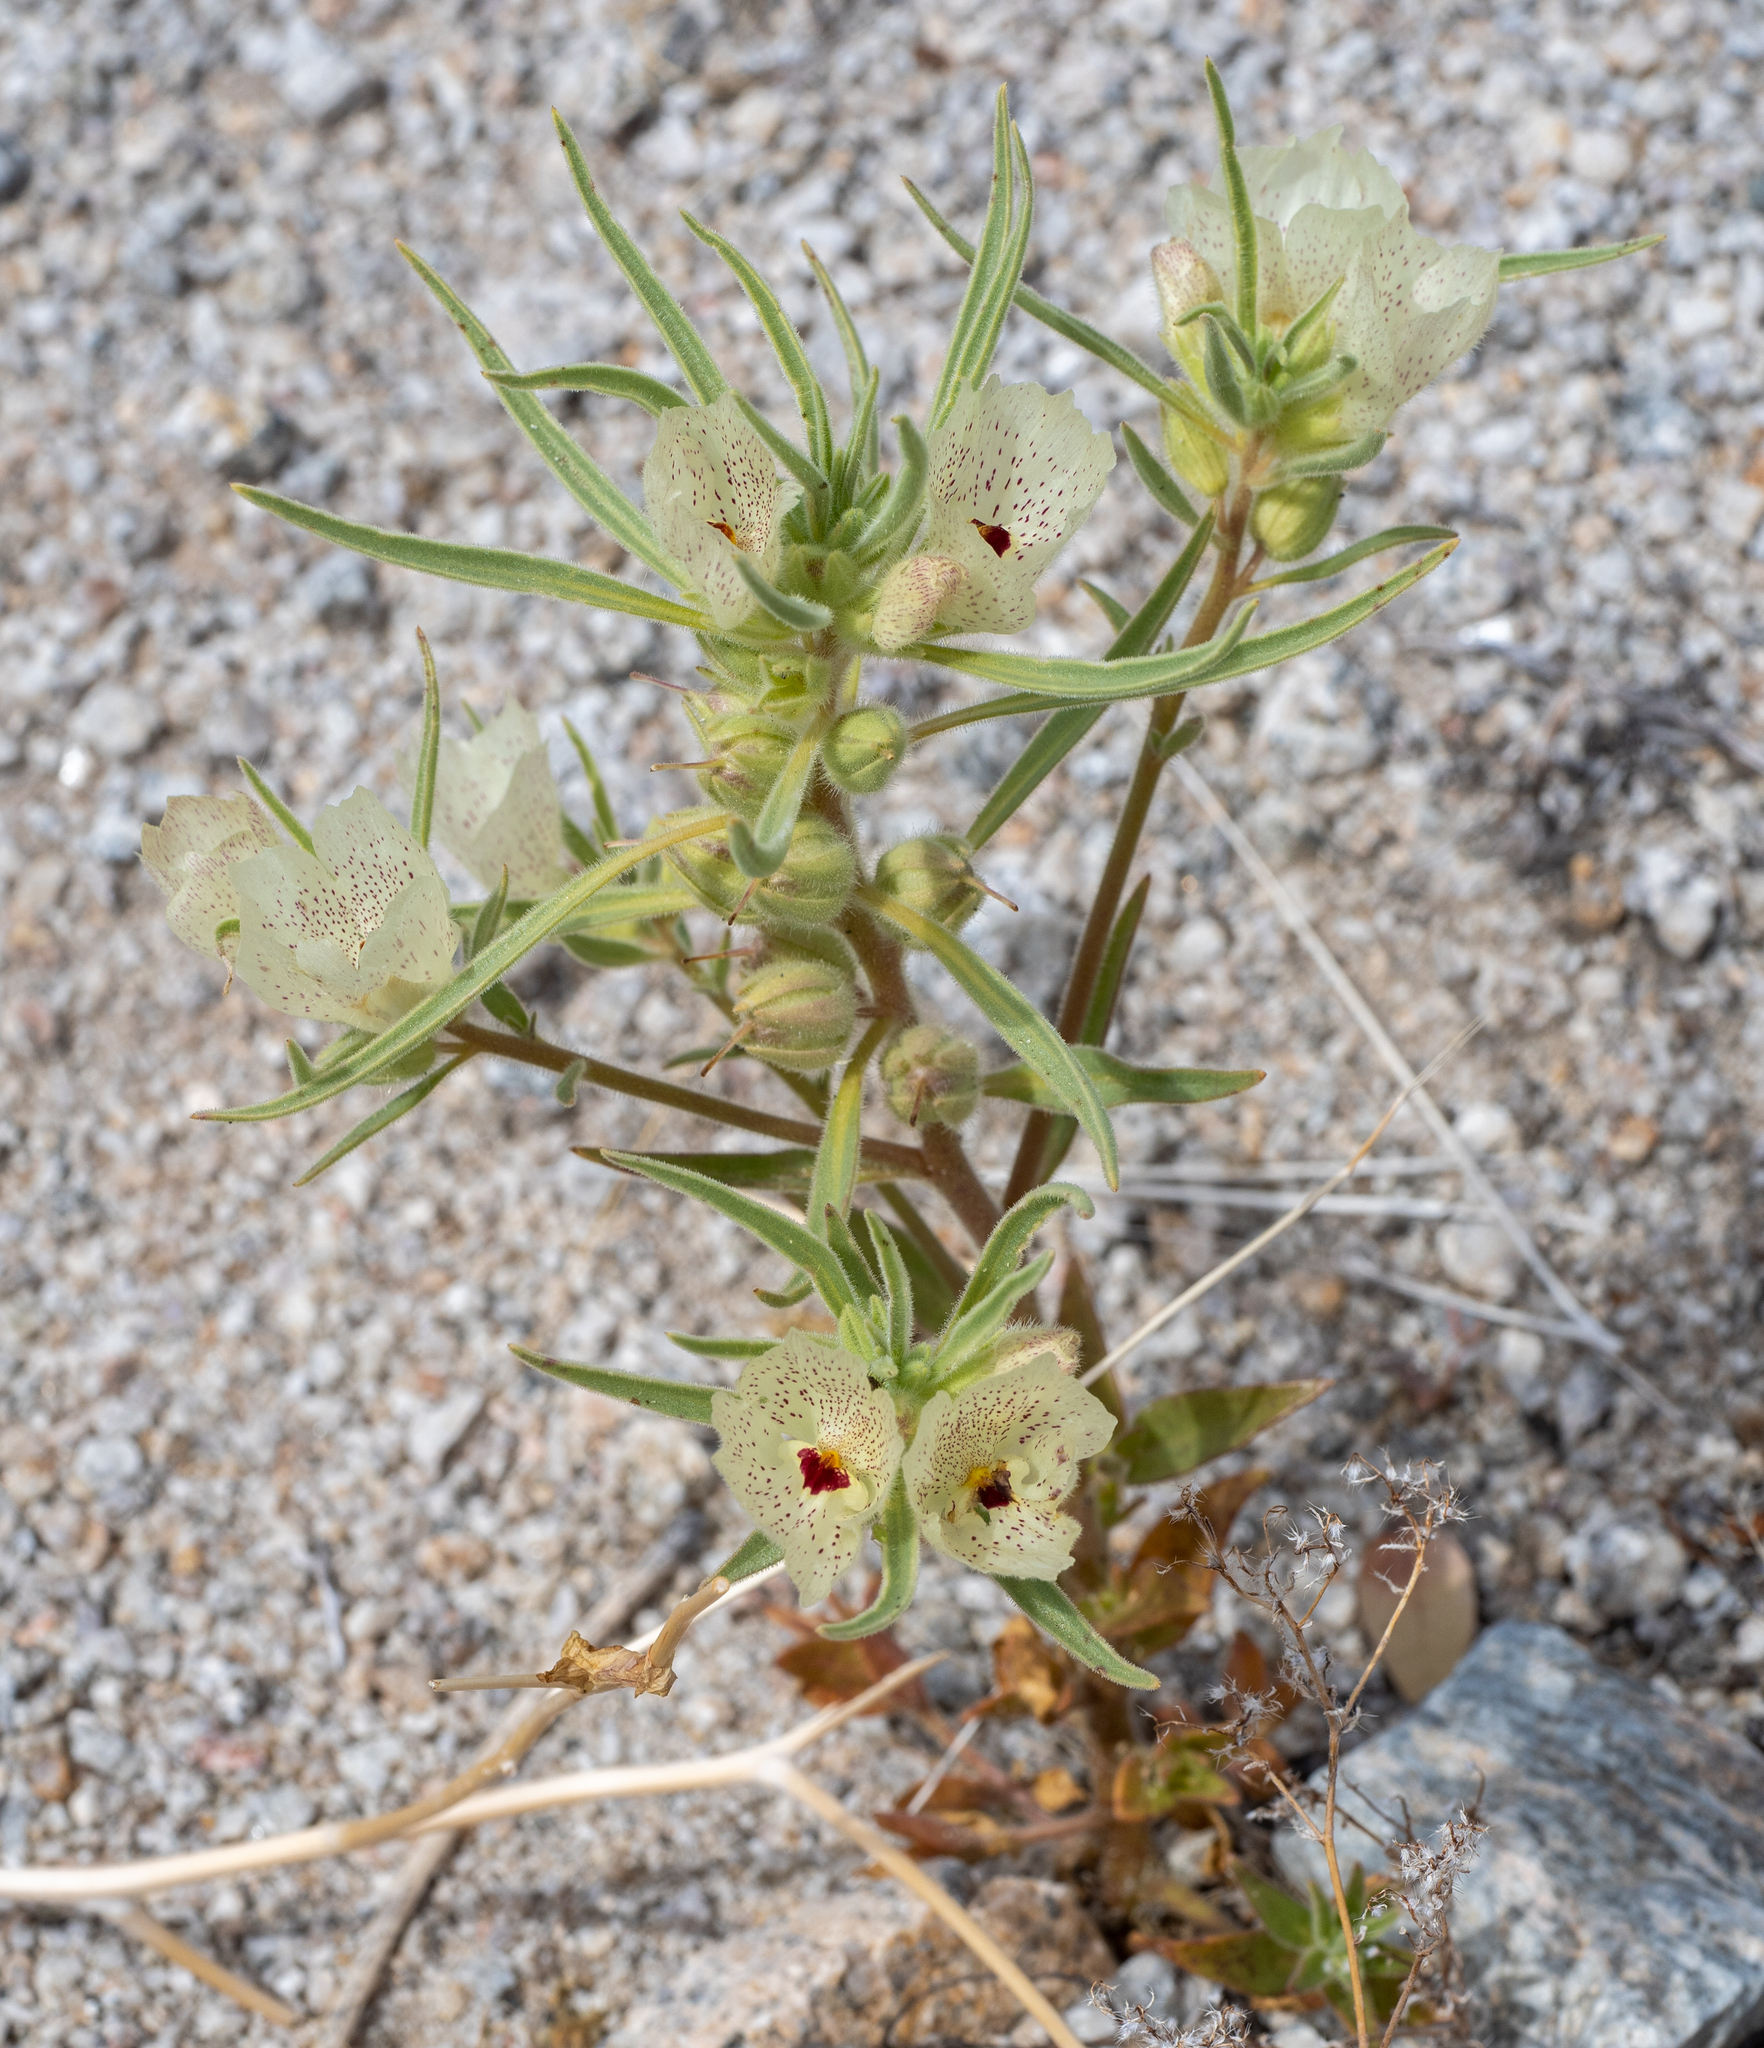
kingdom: Plantae
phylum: Tracheophyta
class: Magnoliopsida
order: Lamiales
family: Plantaginaceae
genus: Mohavea
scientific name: Mohavea confertiflora
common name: Ghost flower
